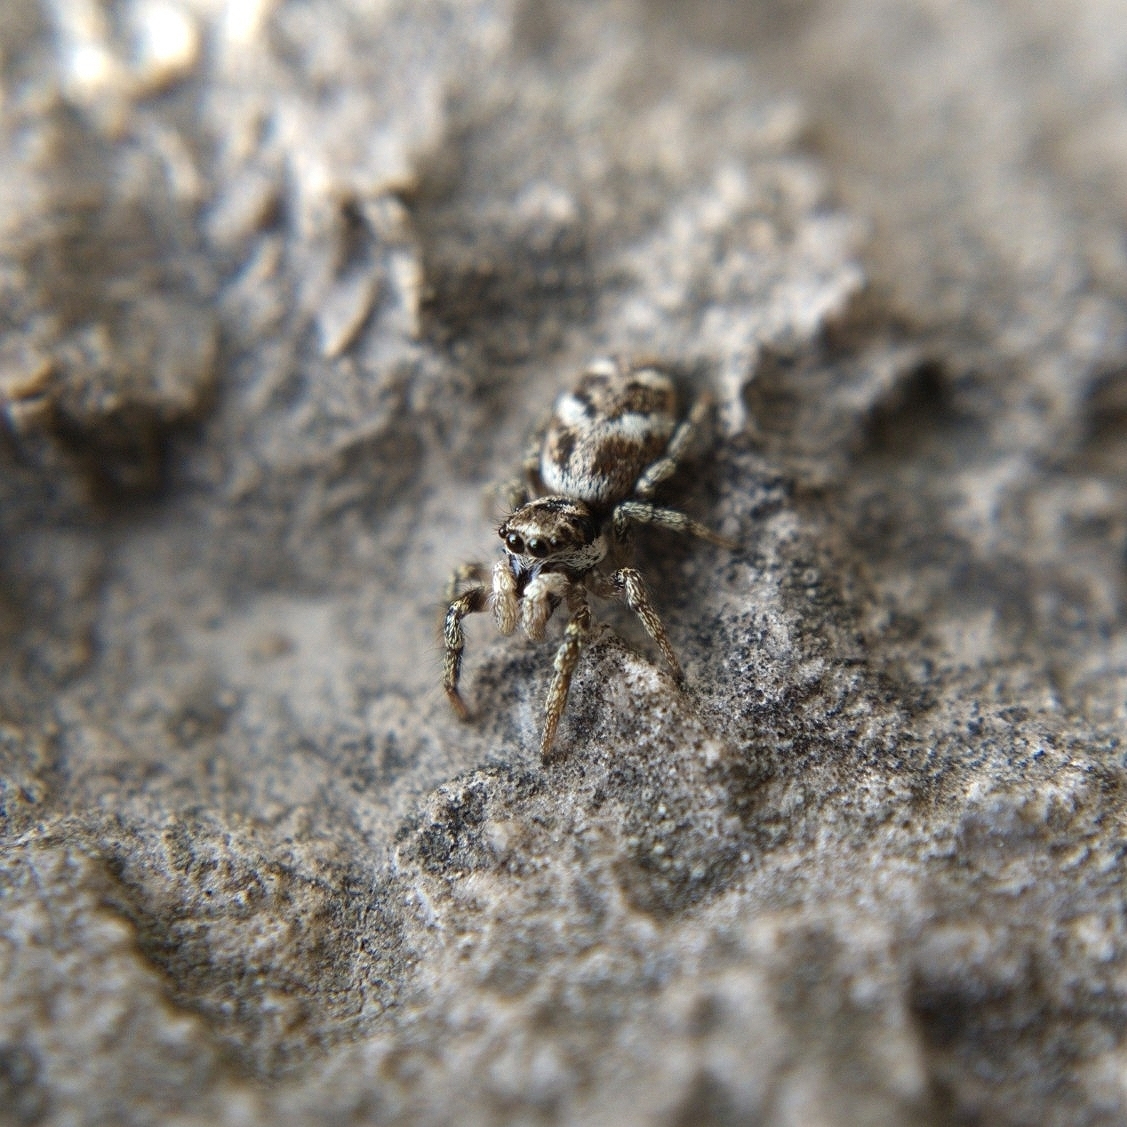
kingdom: Animalia
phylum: Arthropoda
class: Arachnida
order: Araneae
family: Salticidae
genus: Salticus
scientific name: Salticus scenicus
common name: Zebra jumper
